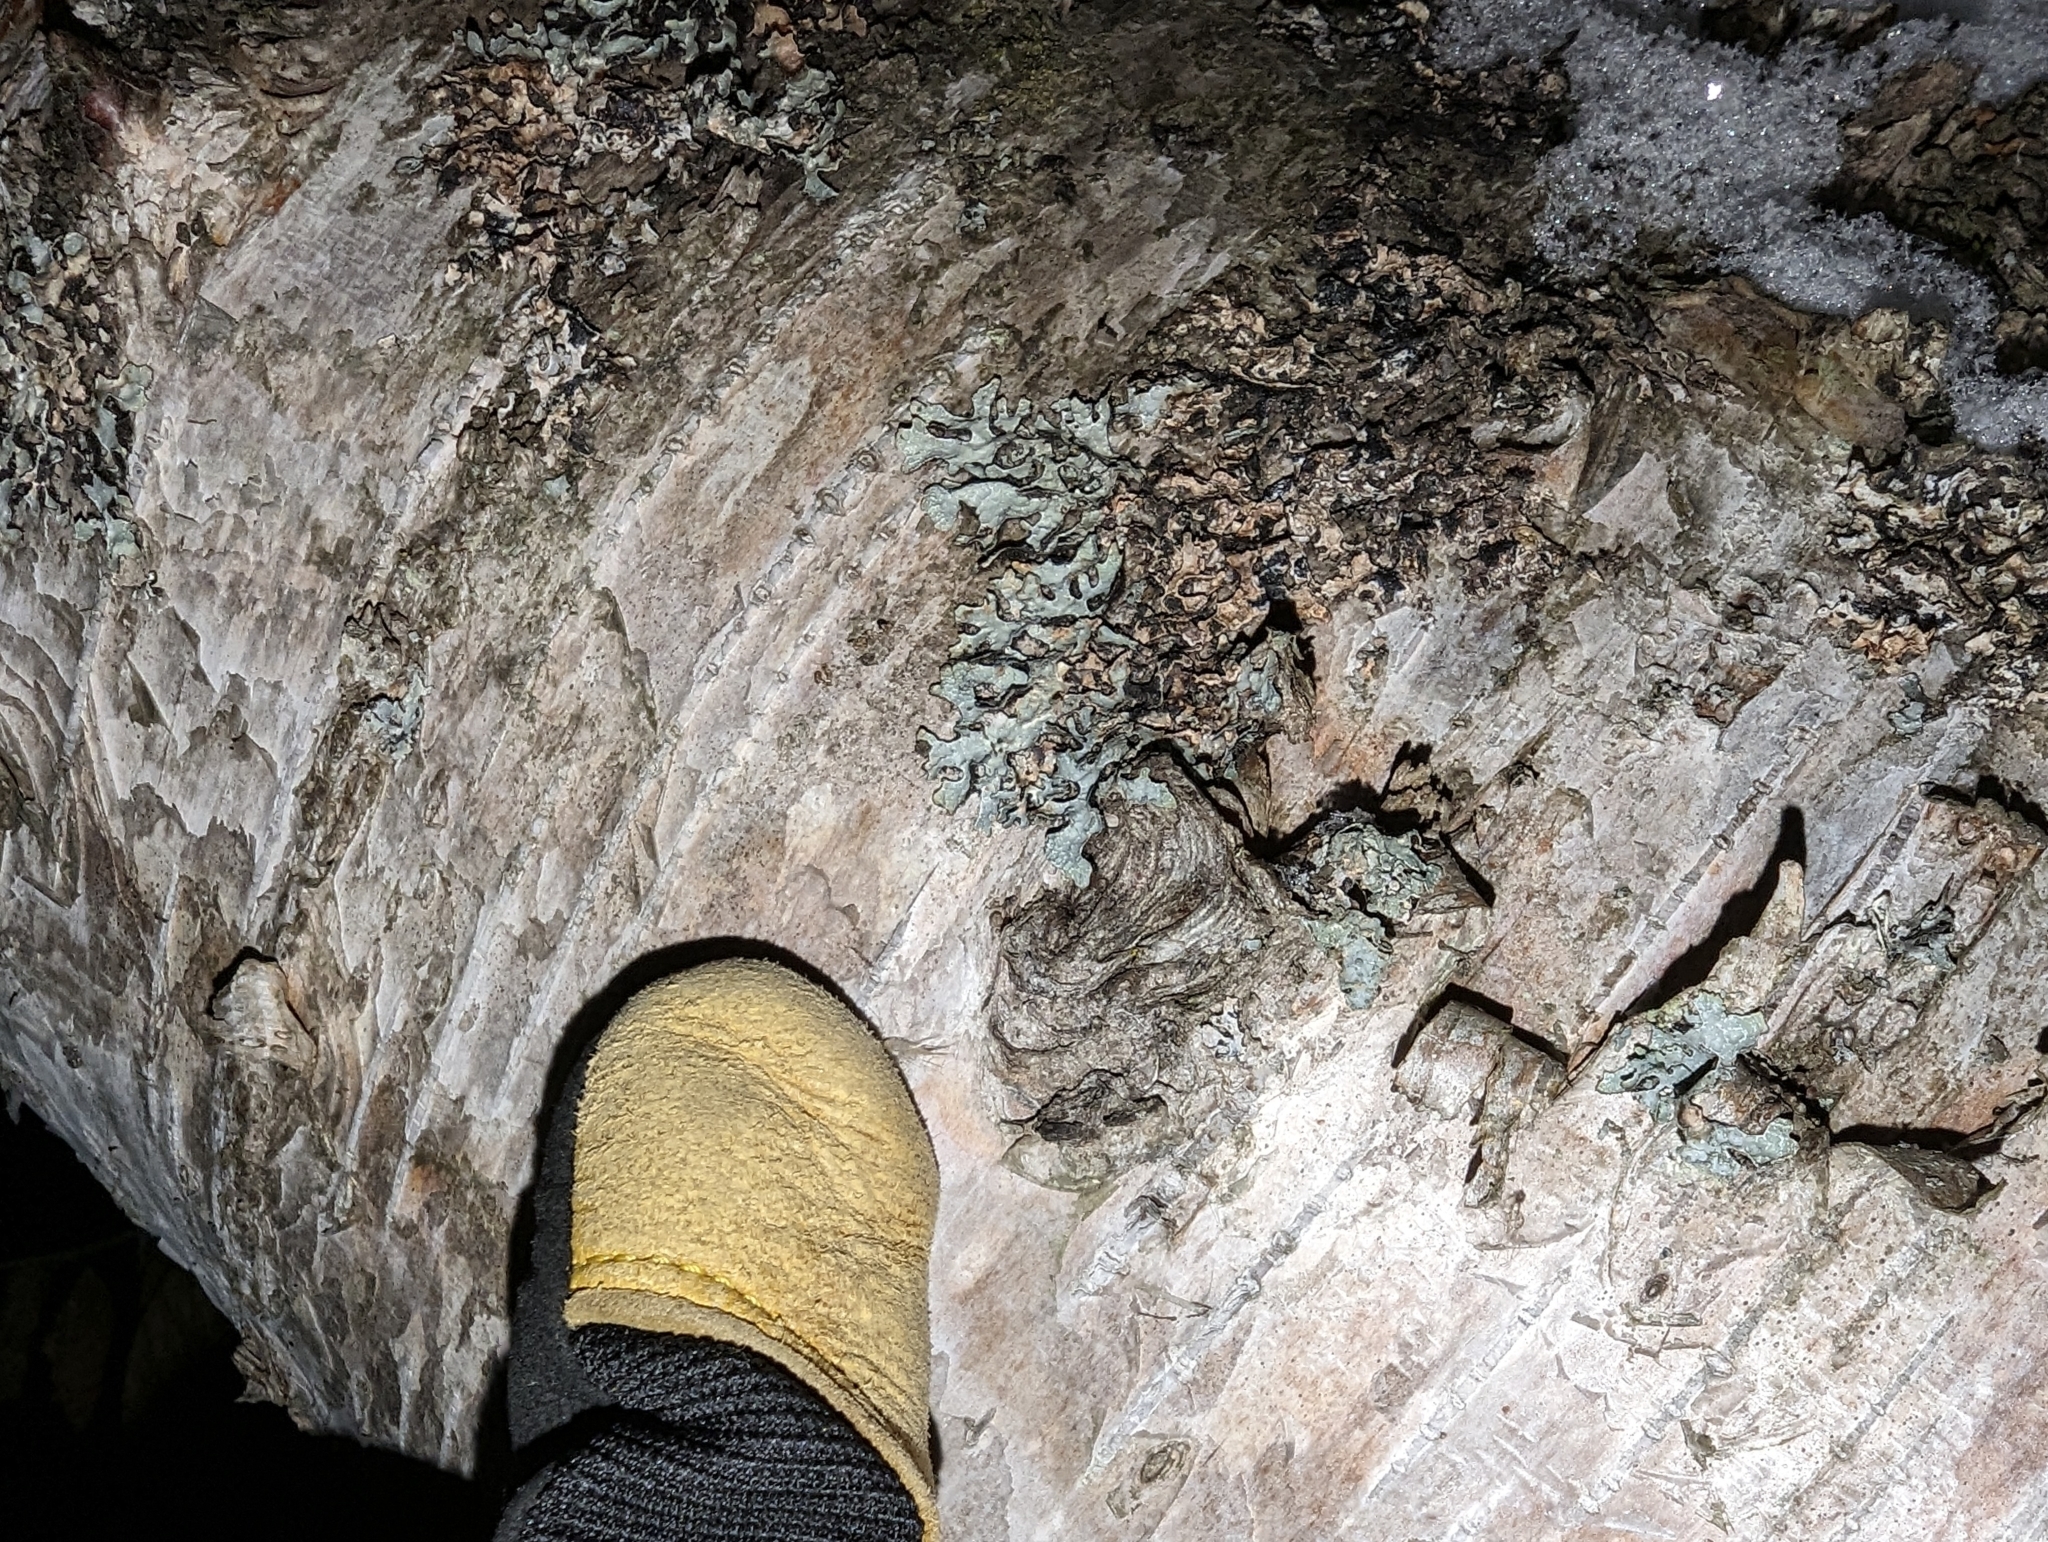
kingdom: Fungi
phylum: Ascomycota
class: Lecanoromycetes
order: Lecanorales
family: Parmeliaceae
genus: Parmelia
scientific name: Parmelia sulcata
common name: Netted shield lichen
